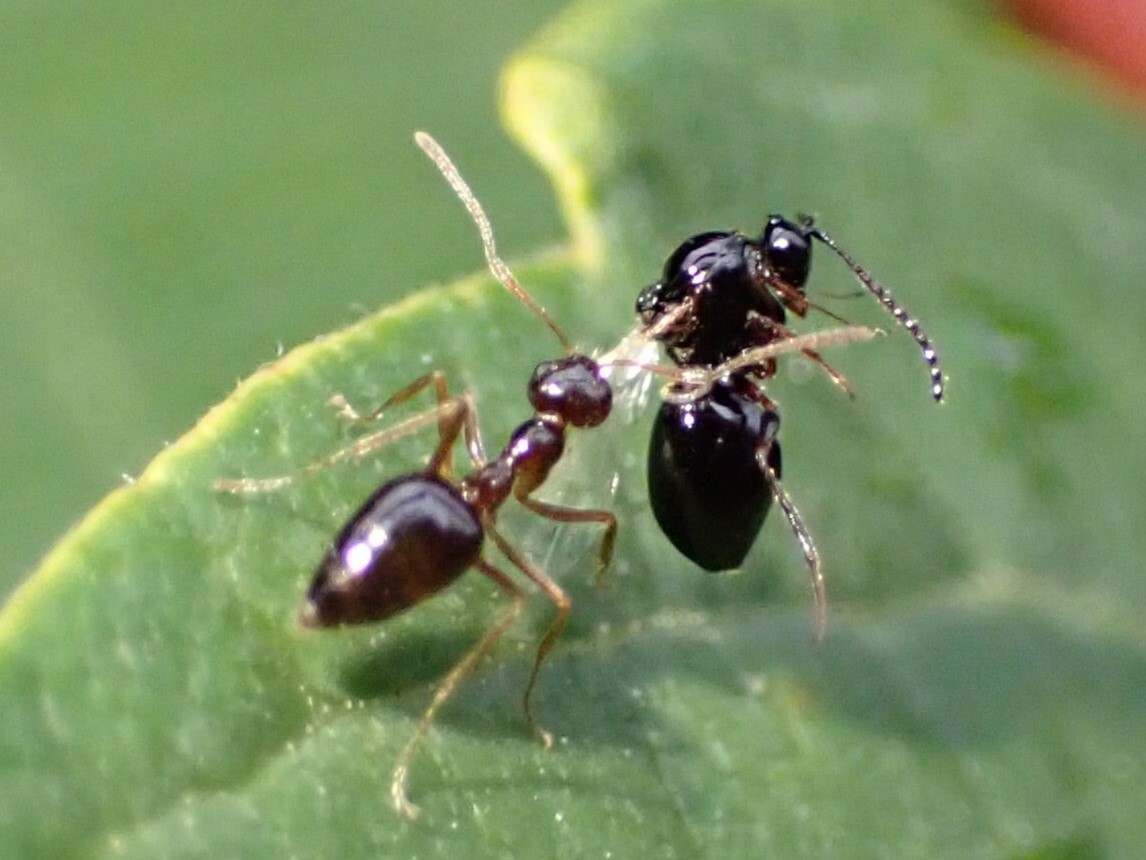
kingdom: Animalia
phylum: Arthropoda
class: Insecta
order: Hymenoptera
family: Formicidae
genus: Prenolepis
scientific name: Prenolepis imparis
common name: Small honey ant
